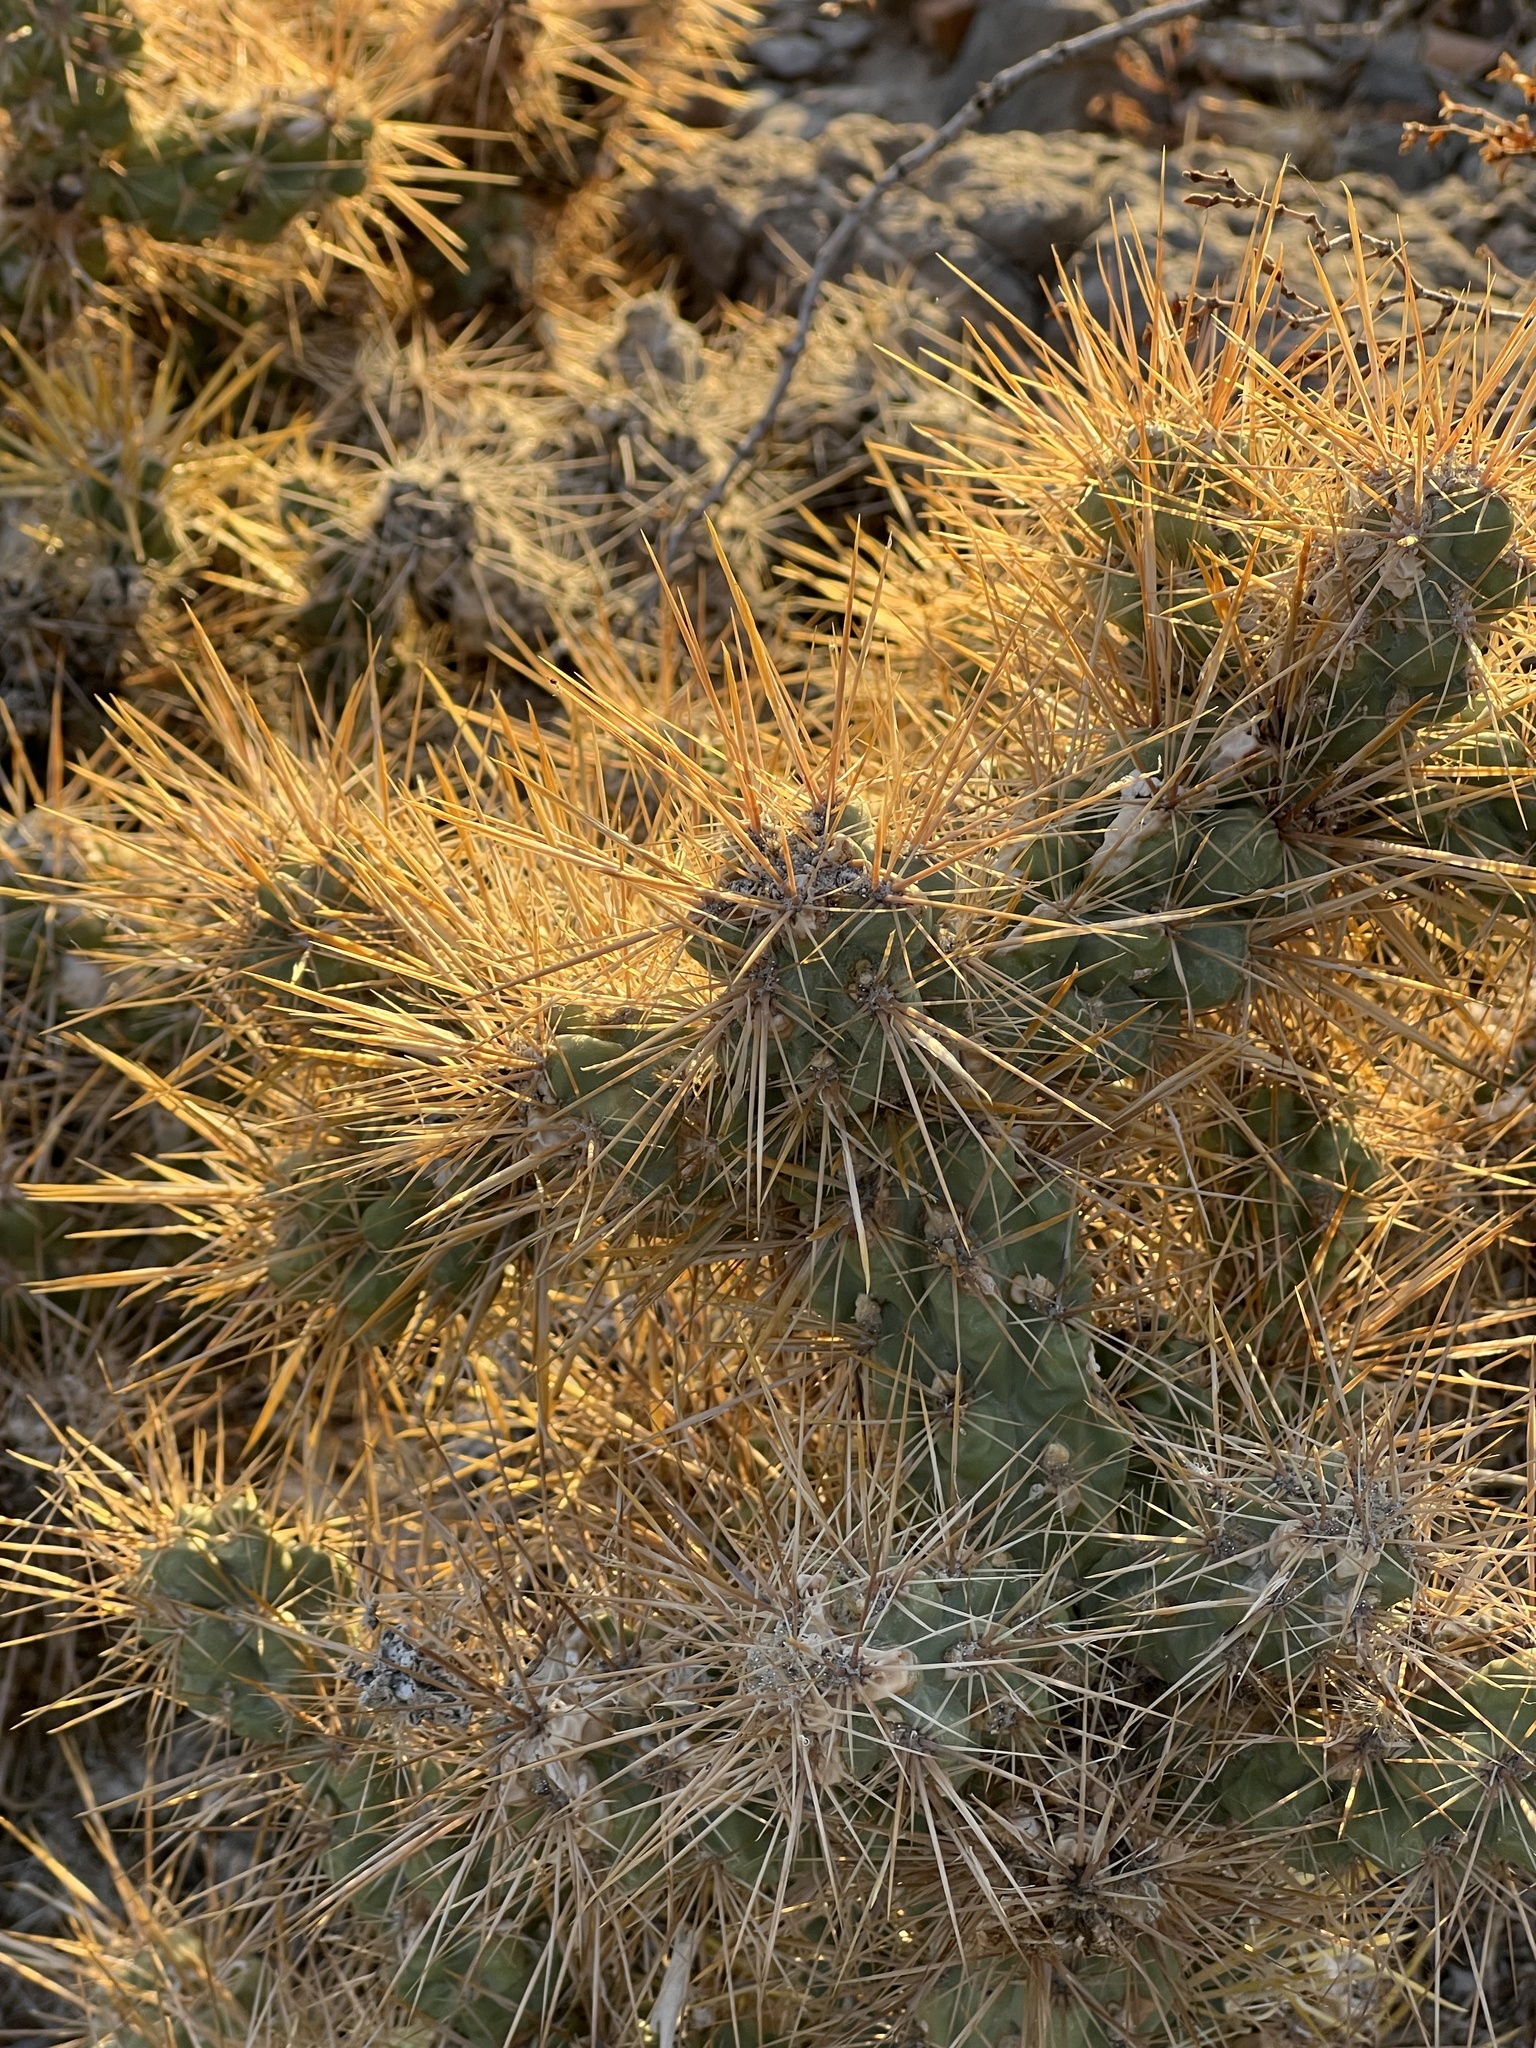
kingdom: Plantae
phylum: Tracheophyta
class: Magnoliopsida
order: Caryophyllales
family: Cactaceae
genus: Cylindropuntia
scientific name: Cylindropuntia echinocarpa
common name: Ground cholla
